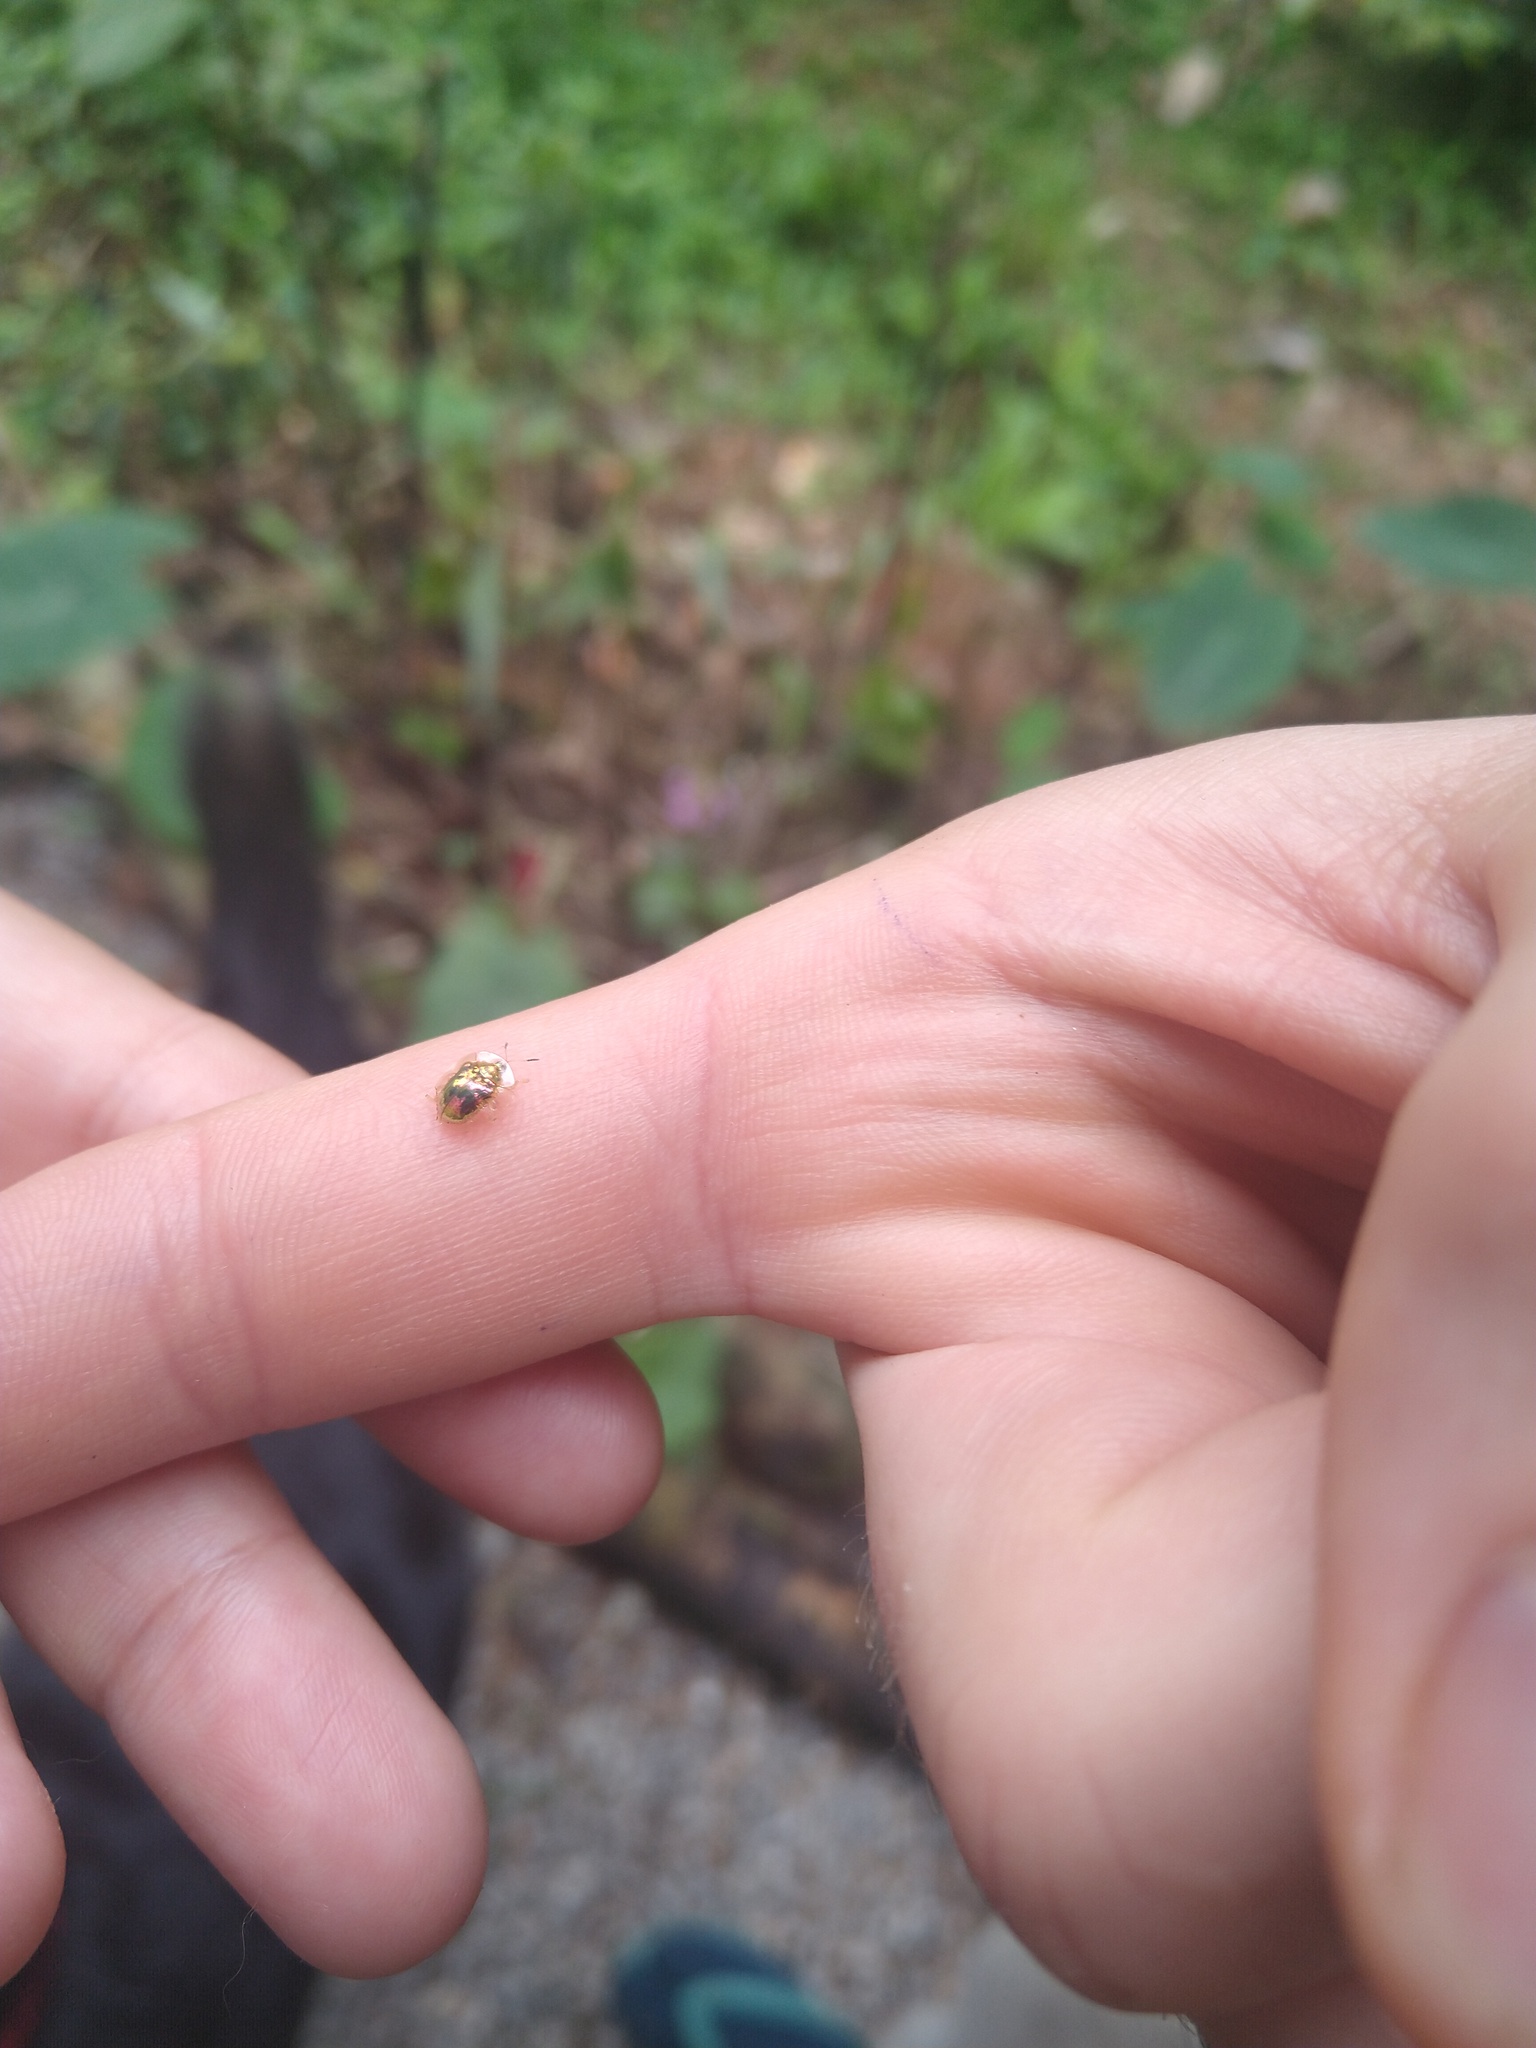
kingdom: Animalia
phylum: Arthropoda
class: Insecta
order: Coleoptera
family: Chrysomelidae
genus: Charidotella
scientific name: Charidotella sexpunctata
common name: Golden tortoise beetle
